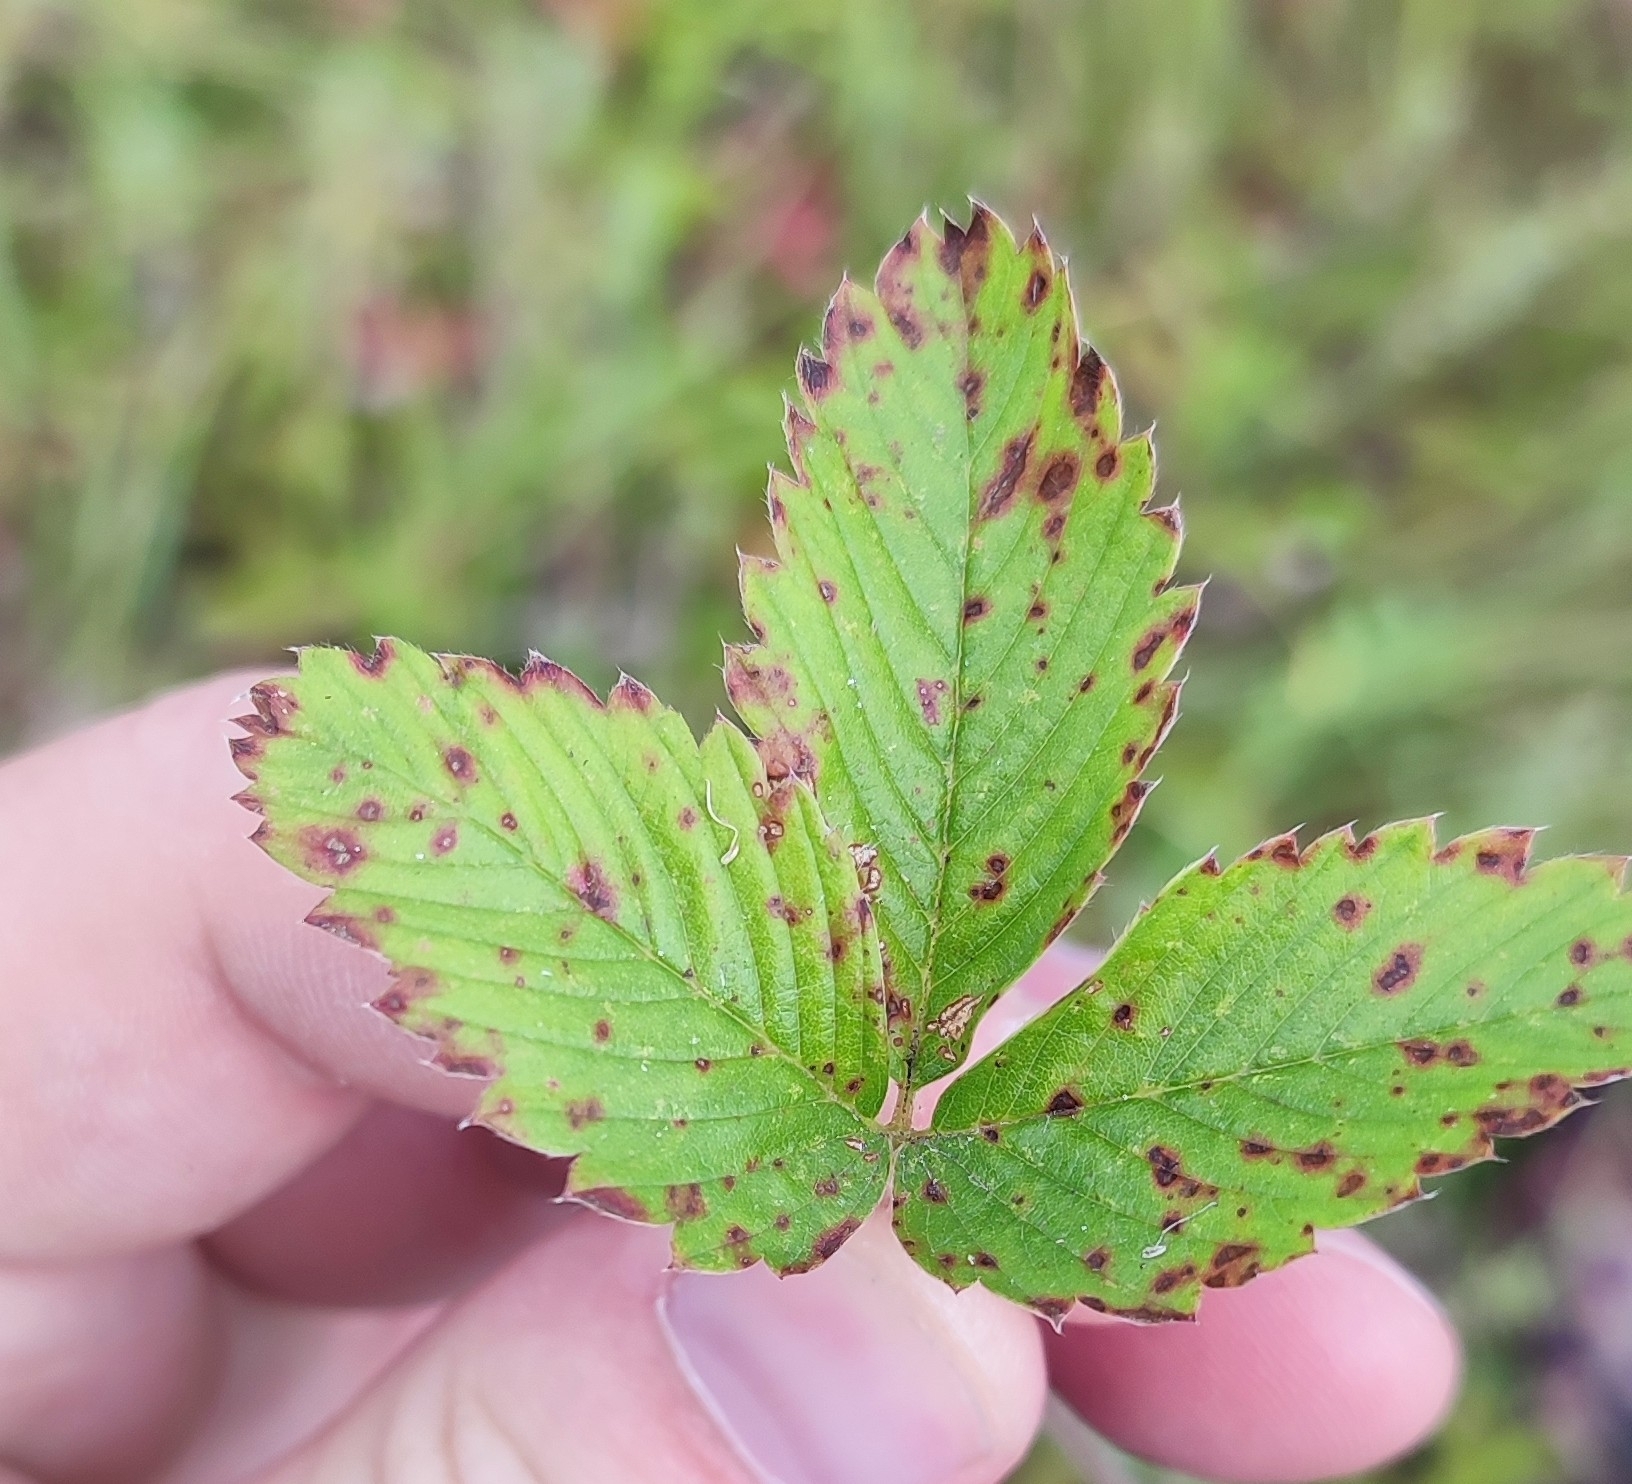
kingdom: Plantae
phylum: Tracheophyta
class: Magnoliopsida
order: Rosales
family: Rosaceae
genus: Fragaria
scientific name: Fragaria viridis
